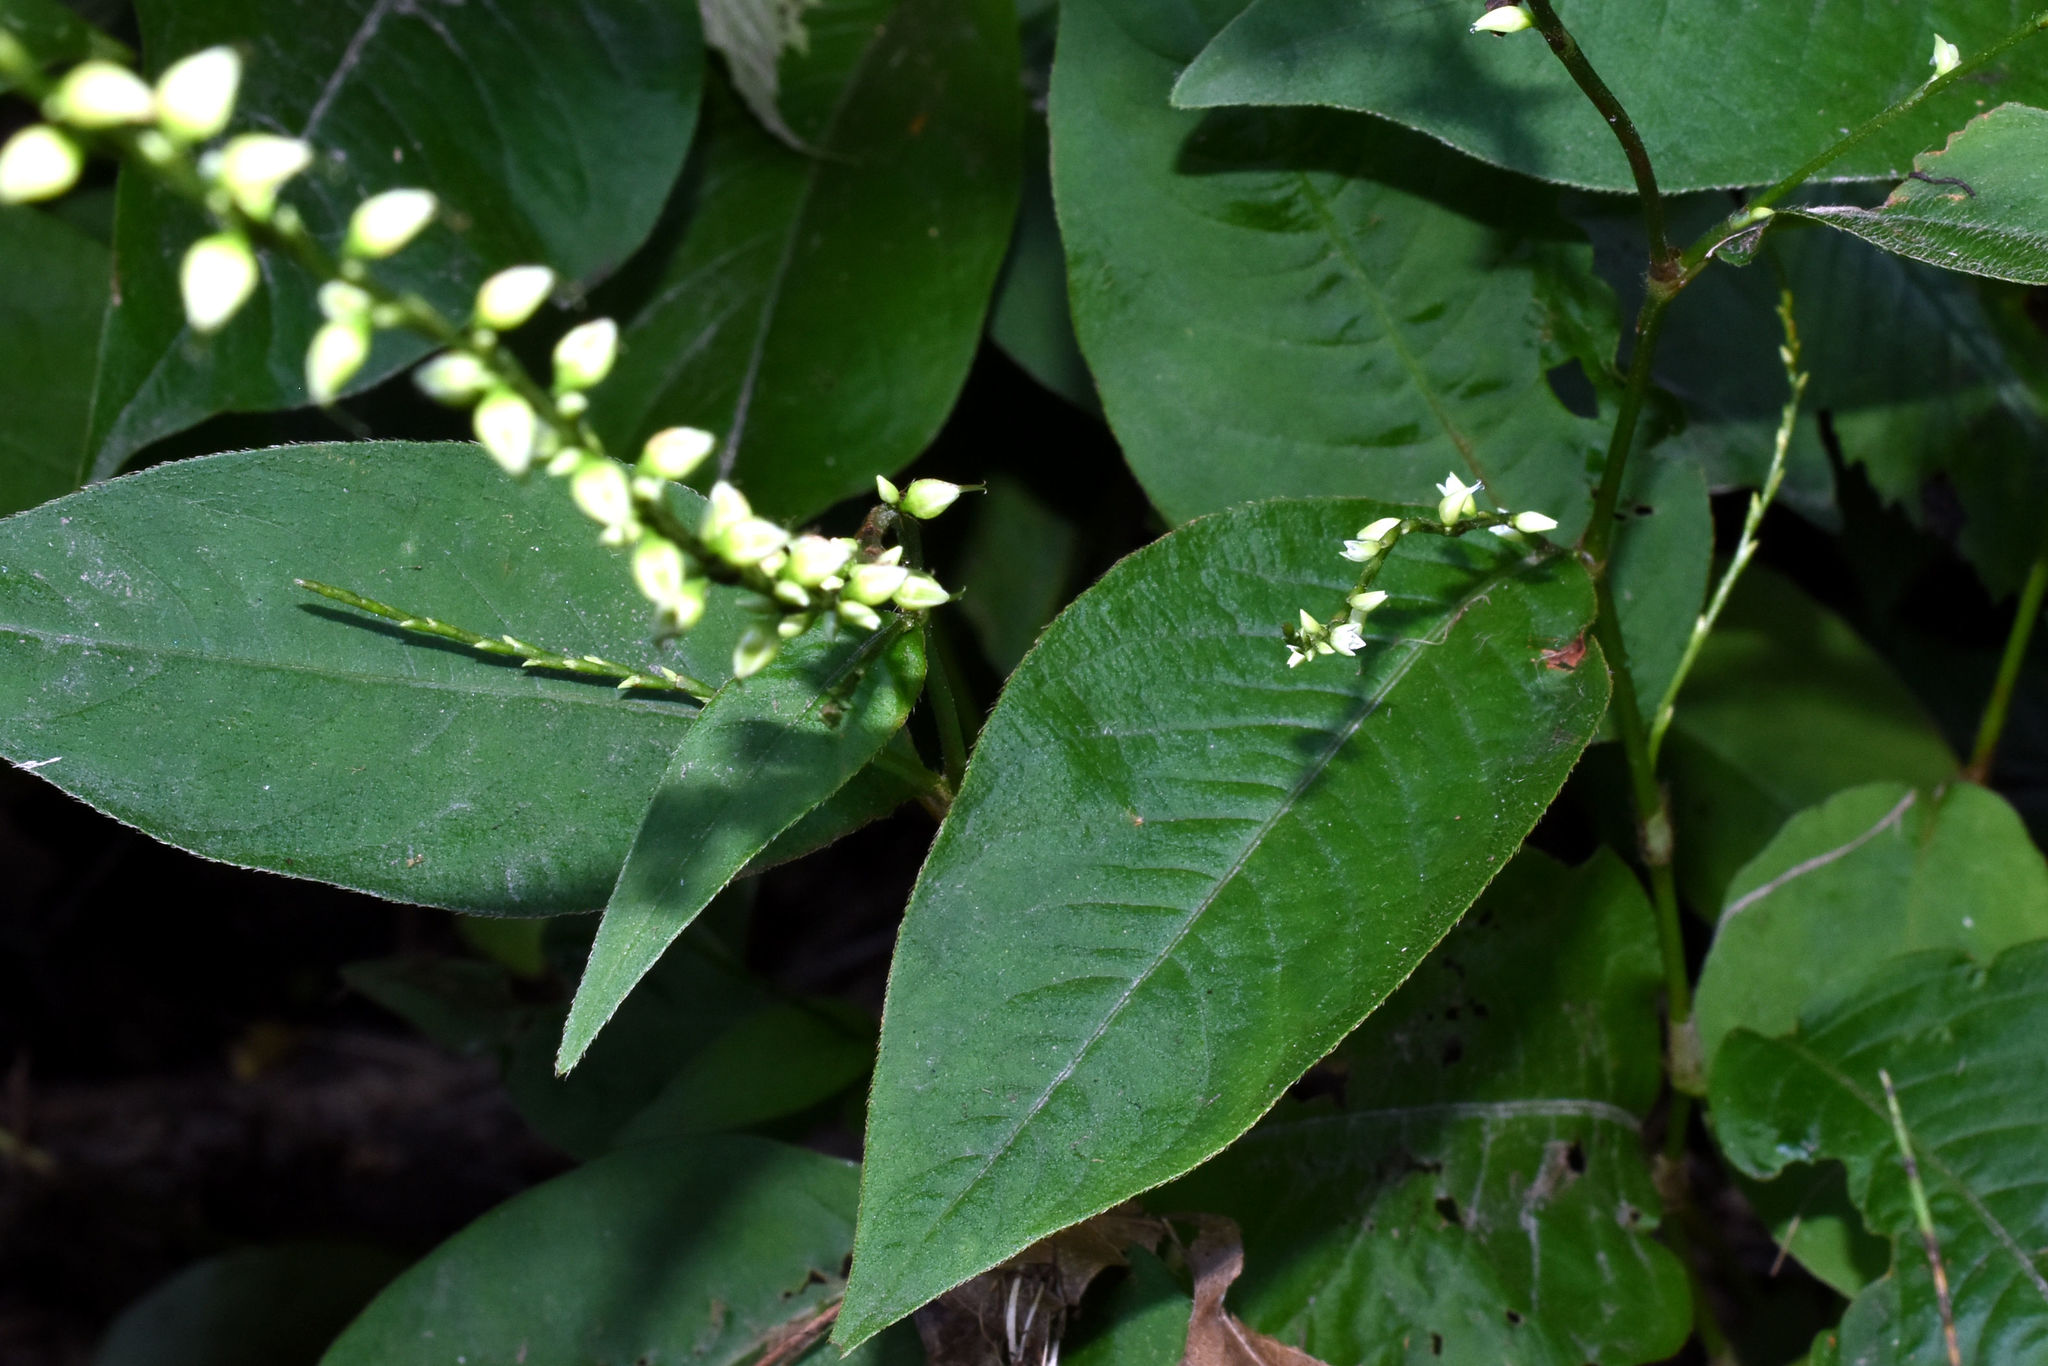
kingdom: Plantae
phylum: Tracheophyta
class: Magnoliopsida
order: Caryophyllales
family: Polygonaceae
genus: Persicaria
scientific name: Persicaria virginiana
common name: Jumpseed
